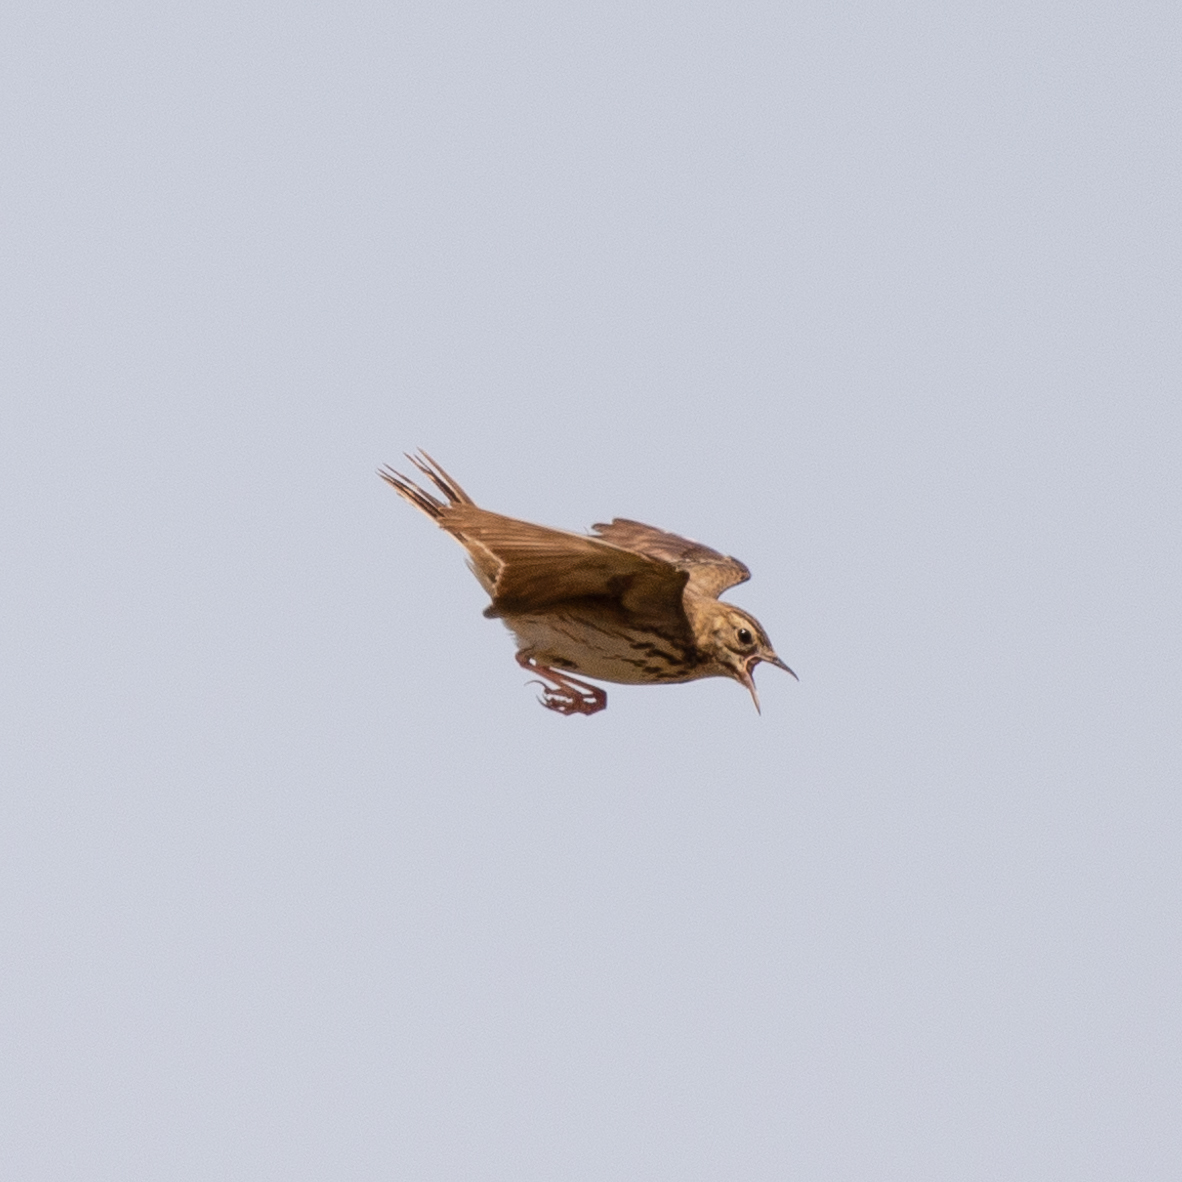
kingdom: Animalia
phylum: Chordata
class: Aves
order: Passeriformes
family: Motacillidae
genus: Anthus
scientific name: Anthus trivialis
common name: Tree pipit
